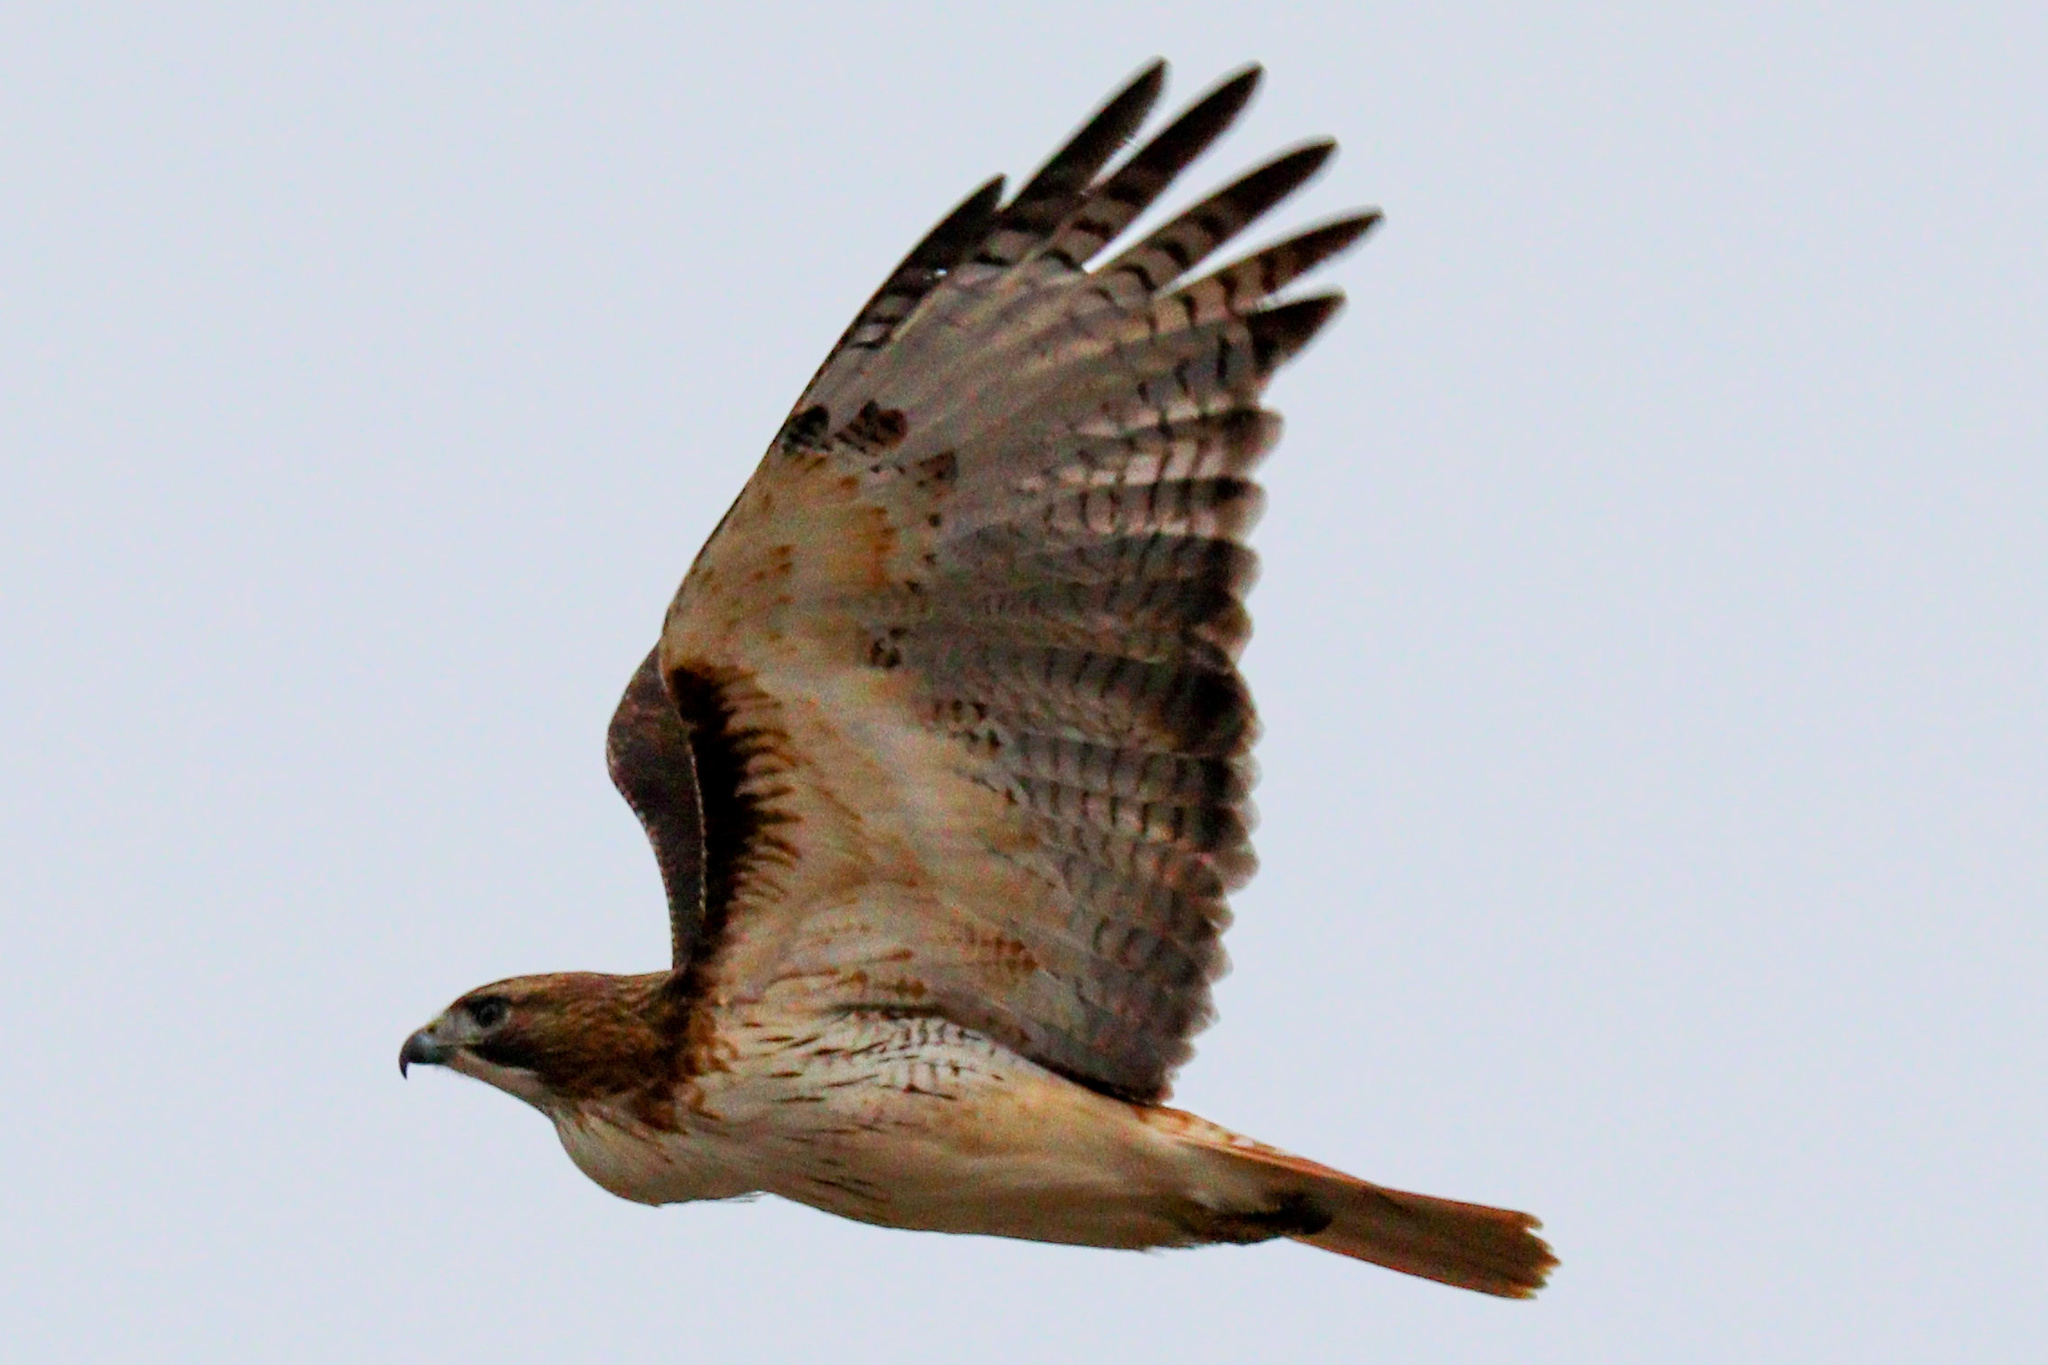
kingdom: Animalia
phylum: Chordata
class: Aves
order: Accipitriformes
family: Accipitridae
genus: Buteo
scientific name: Buteo jamaicensis
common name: Red-tailed hawk
